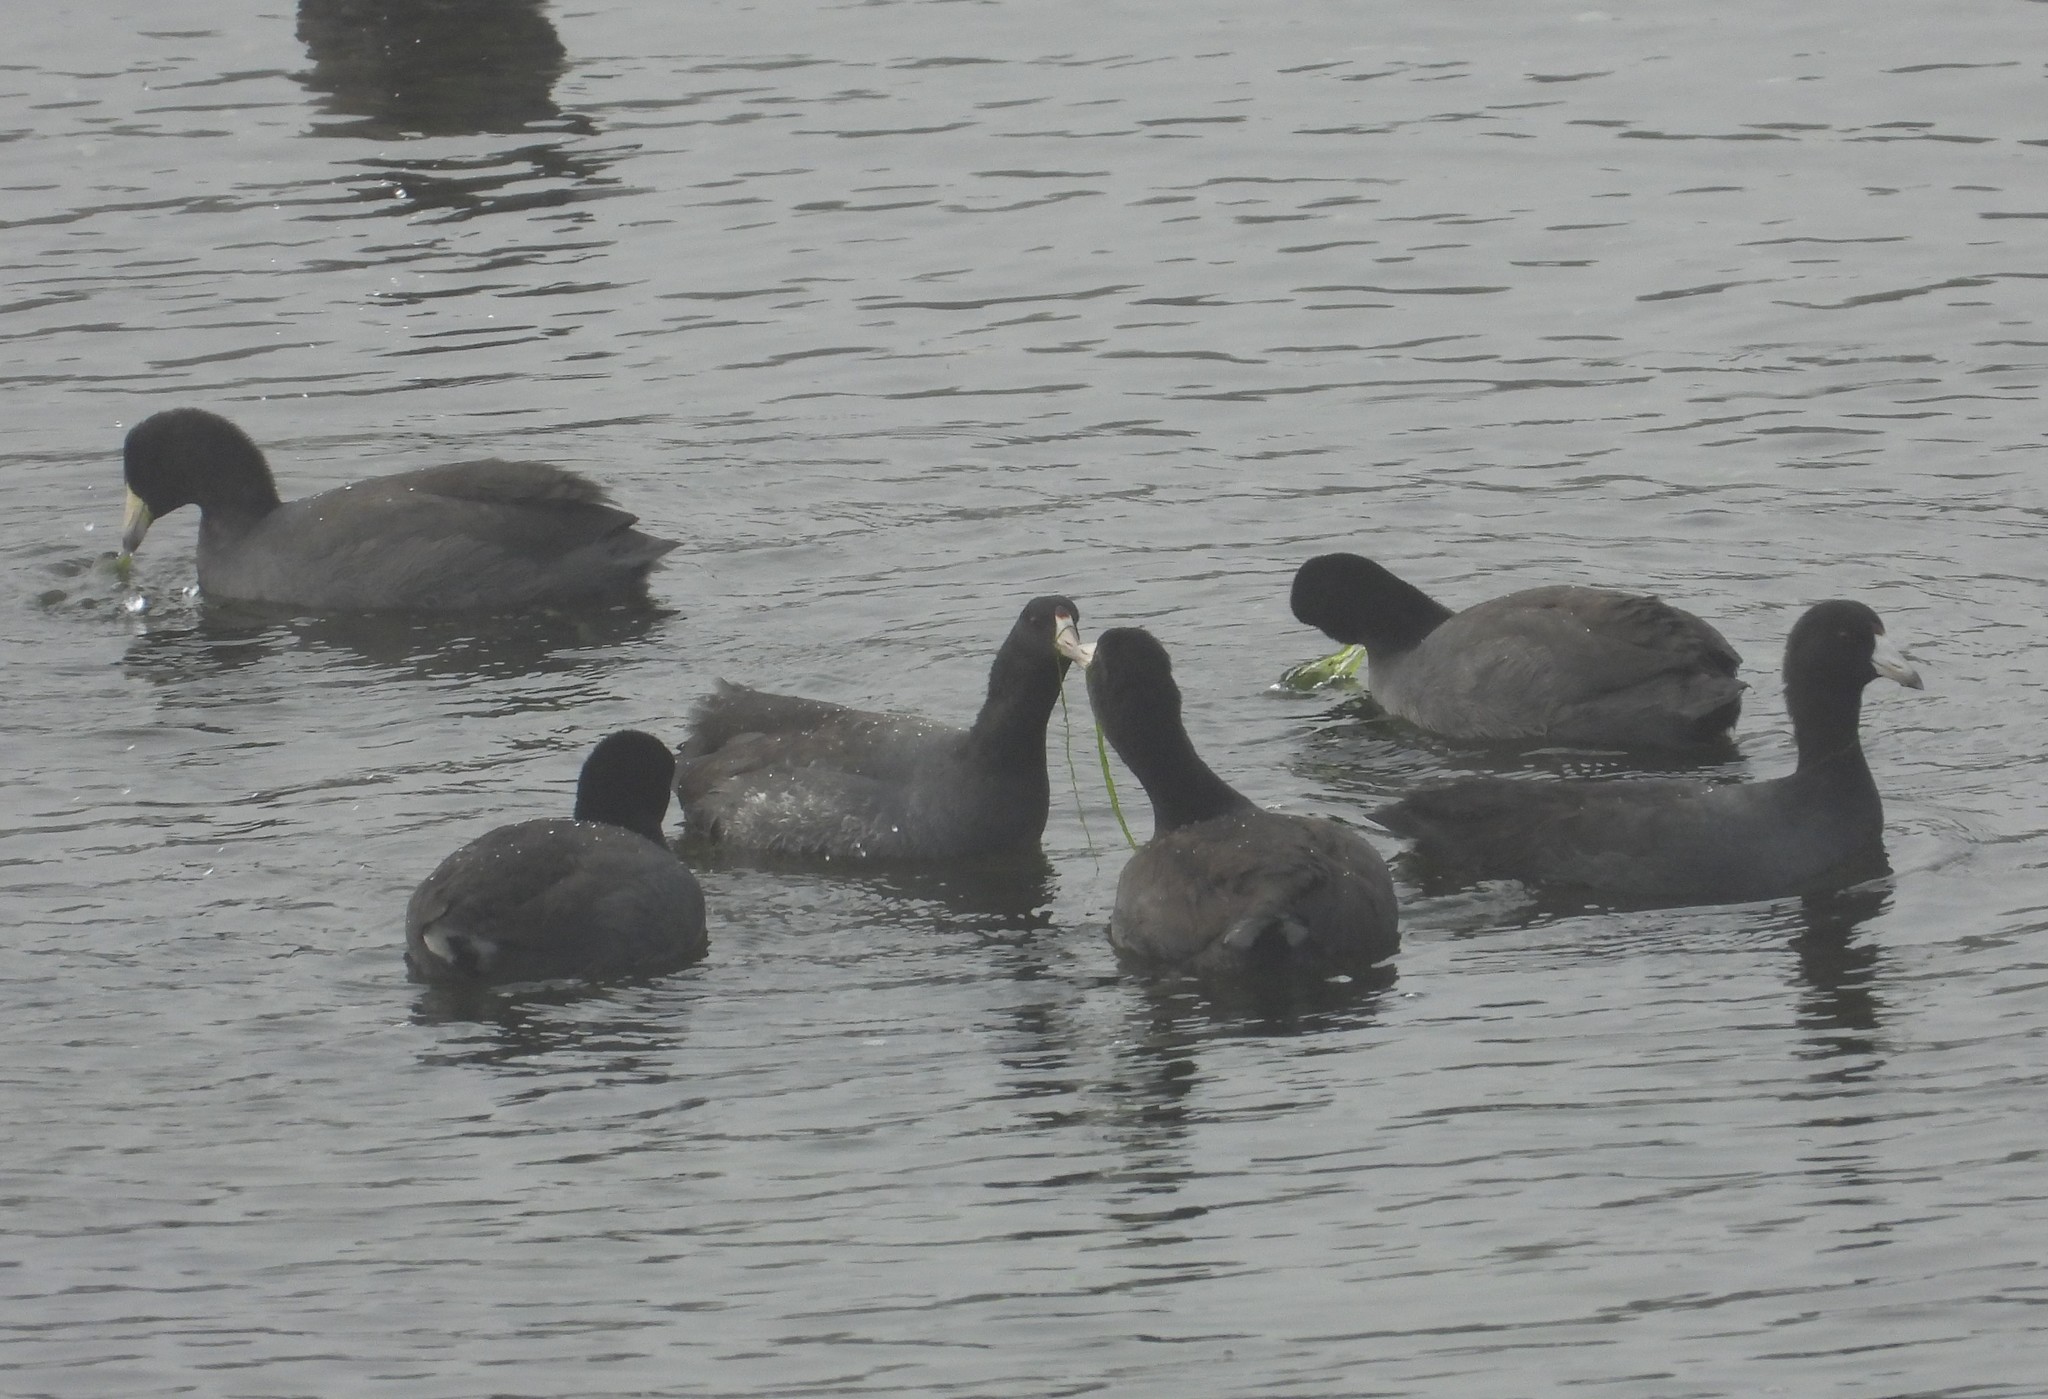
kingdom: Animalia
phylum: Chordata
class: Aves
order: Gruiformes
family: Rallidae
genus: Fulica
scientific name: Fulica americana
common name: American coot
